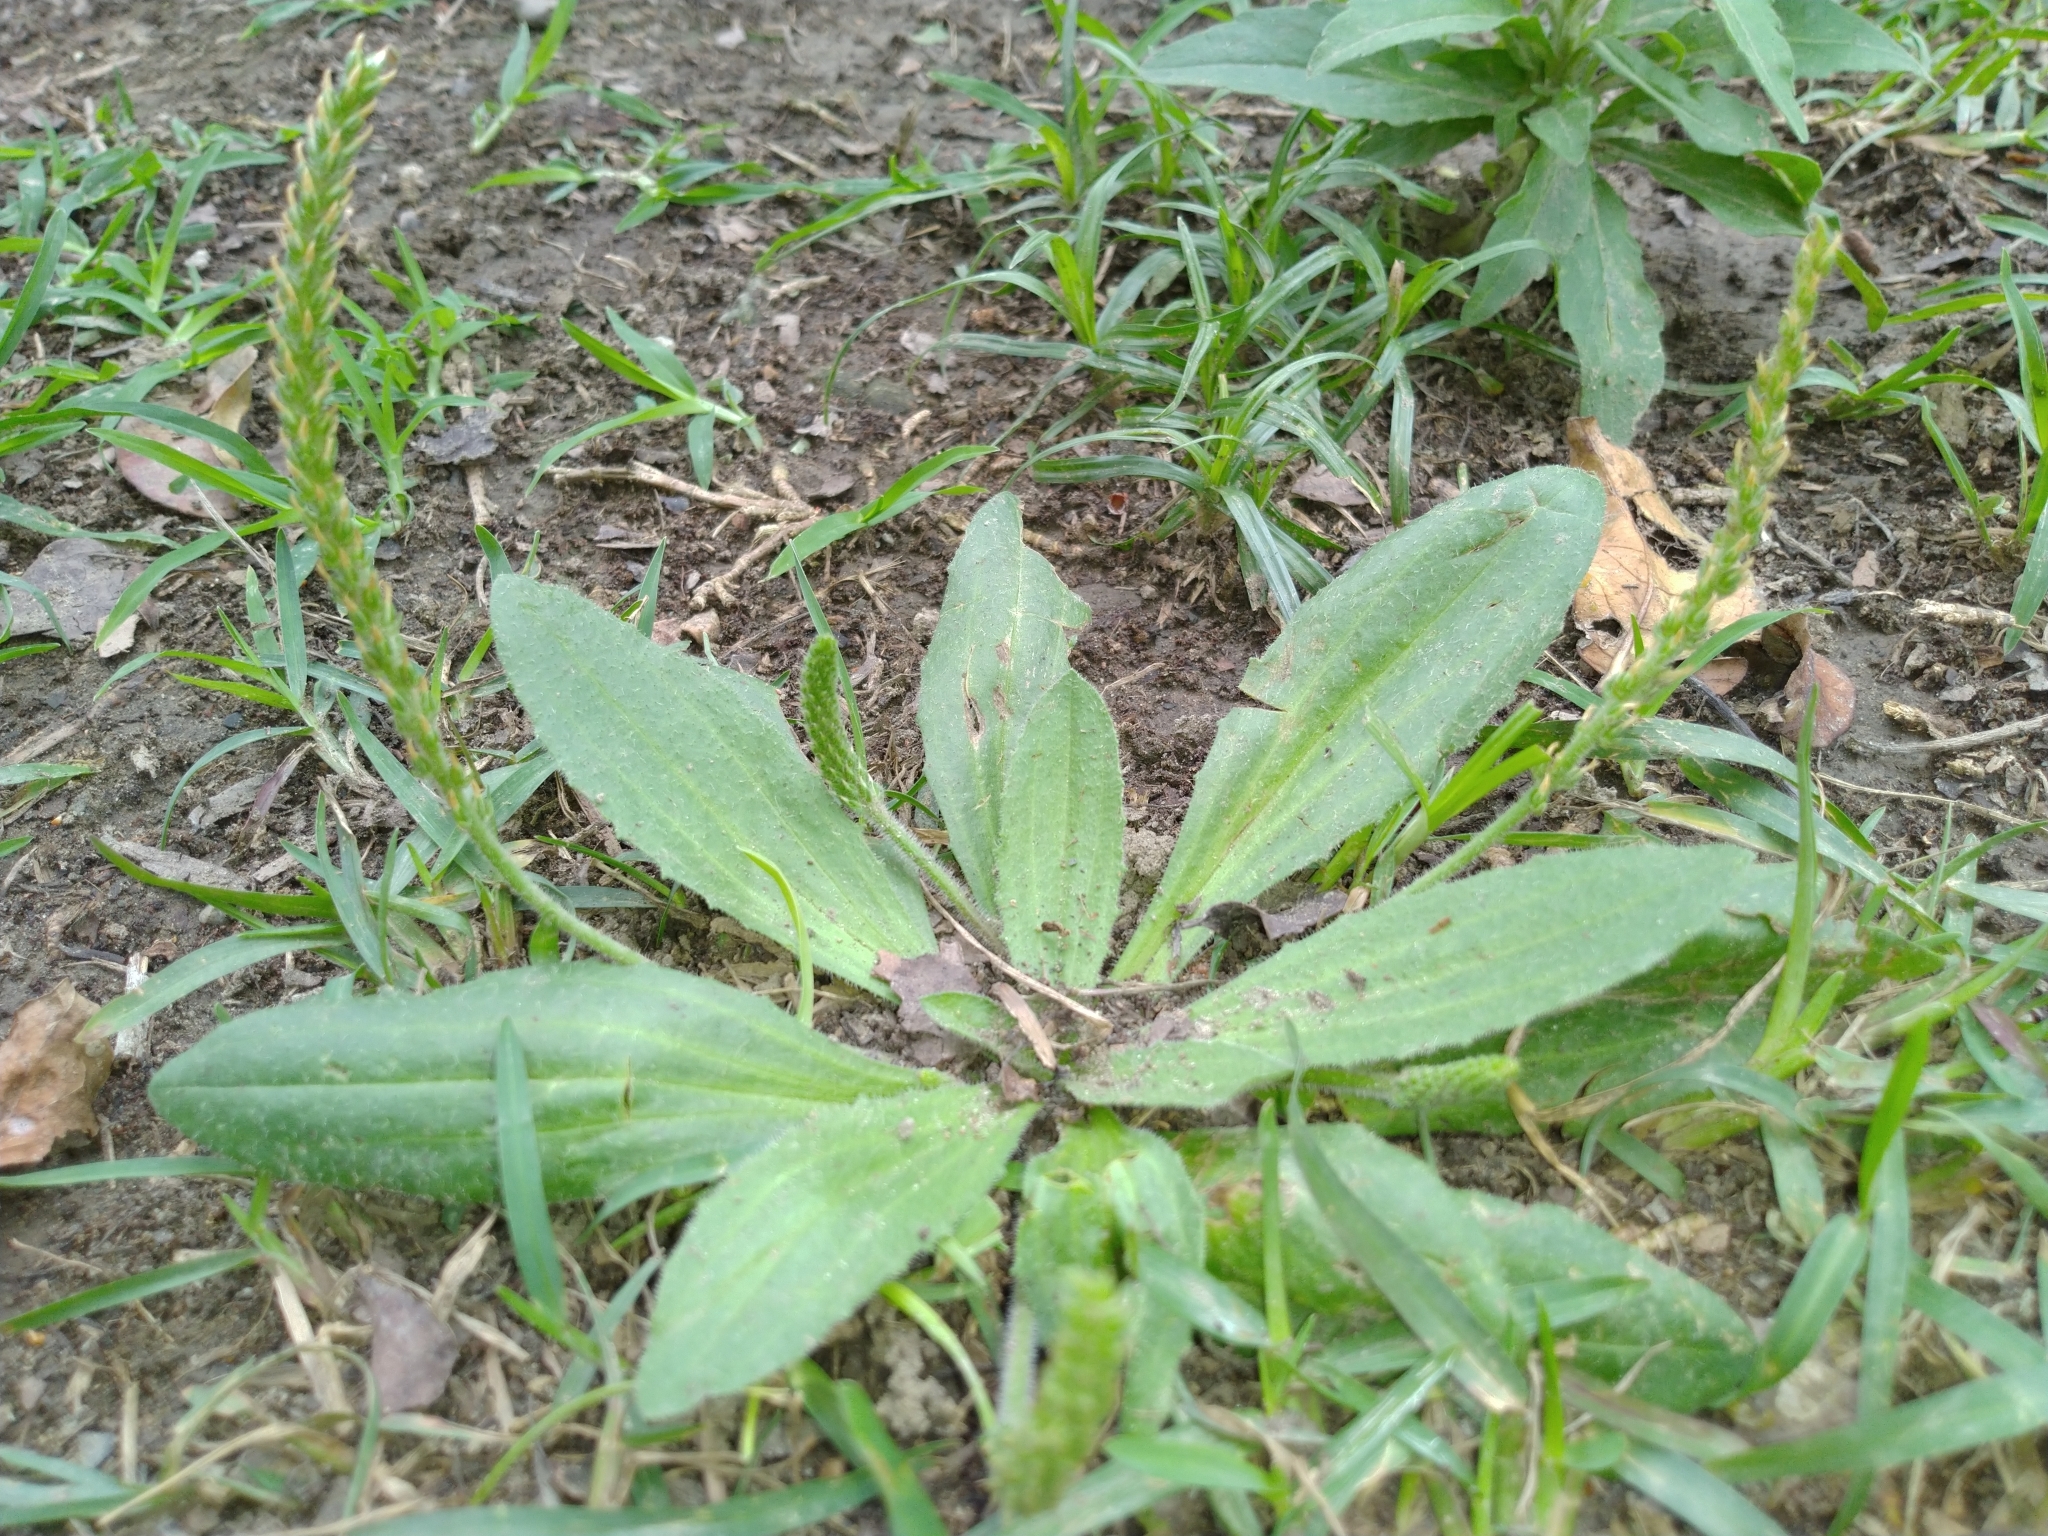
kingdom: Plantae
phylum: Tracheophyta
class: Magnoliopsida
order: Lamiales
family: Plantaginaceae
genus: Plantago
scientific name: Plantago virginica
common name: Hoary plantain
